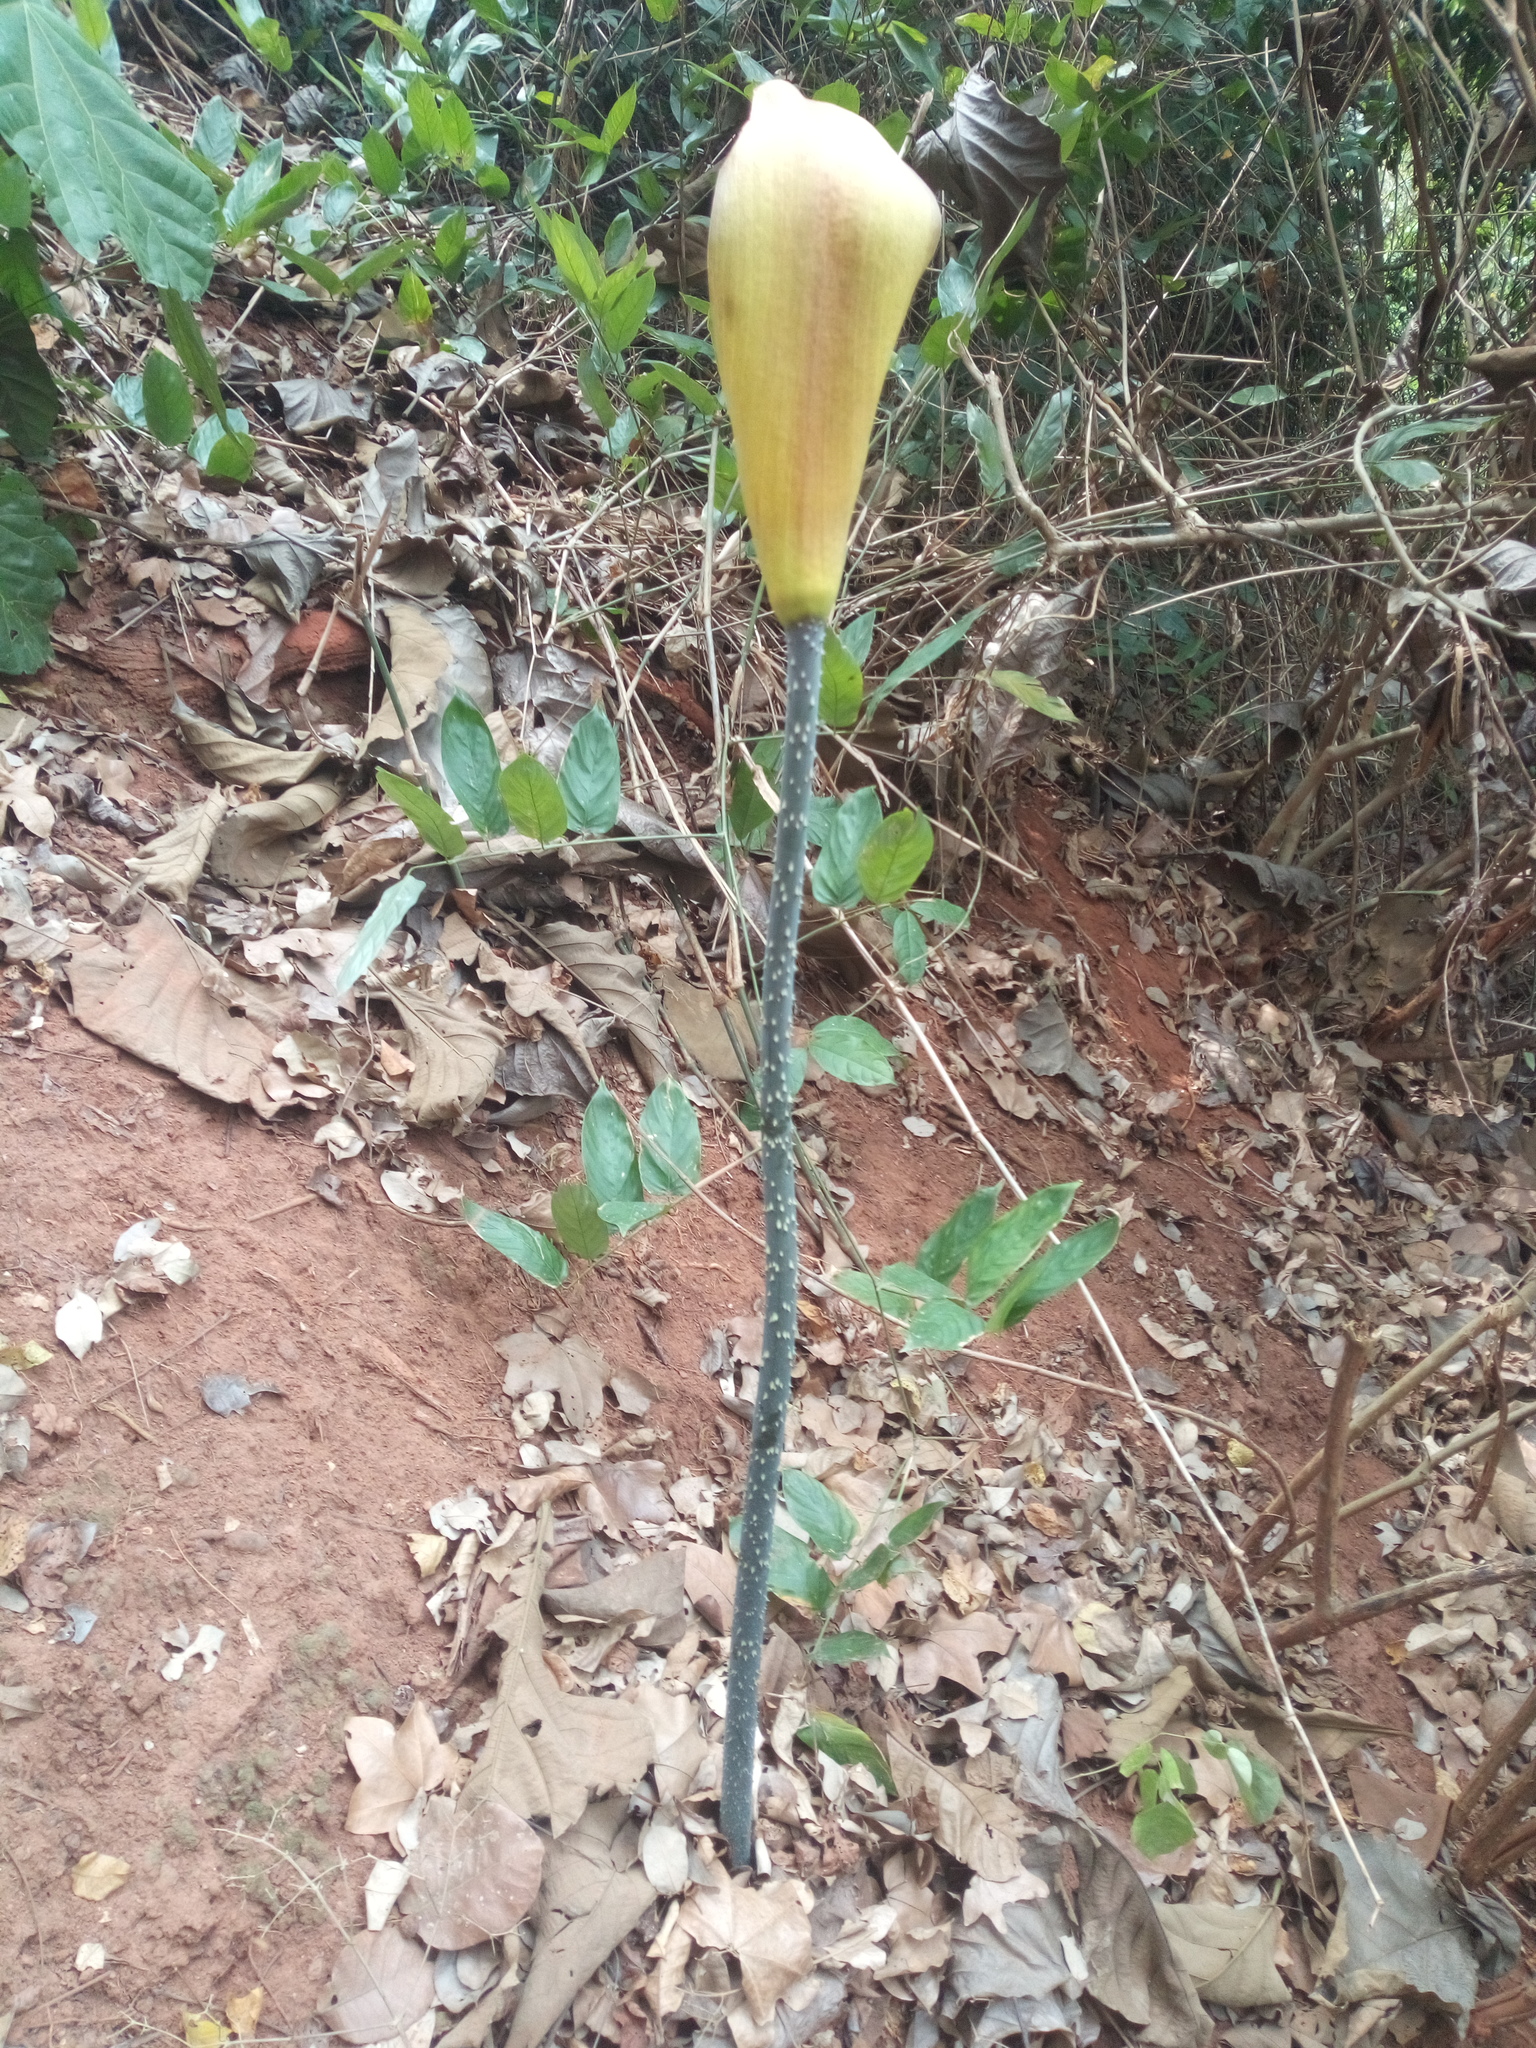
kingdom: Plantae
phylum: Tracheophyta
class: Liliopsida
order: Alismatales
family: Araceae
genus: Anchomanes
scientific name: Anchomanes dalzielii
